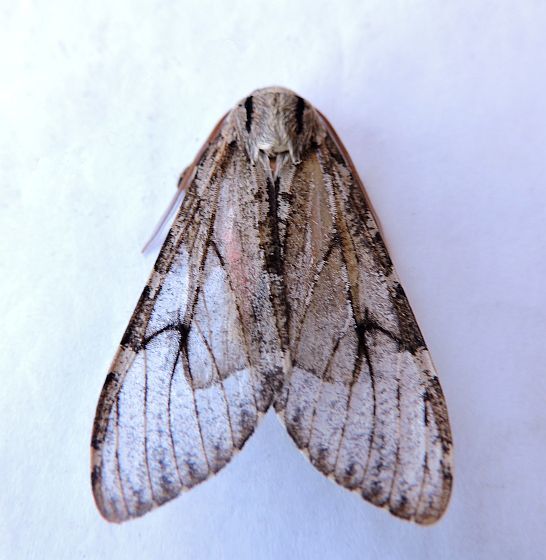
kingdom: Animalia
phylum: Arthropoda
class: Insecta
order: Lepidoptera
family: Erebidae
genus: Hemihyalea
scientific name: Hemihyalea splendens
